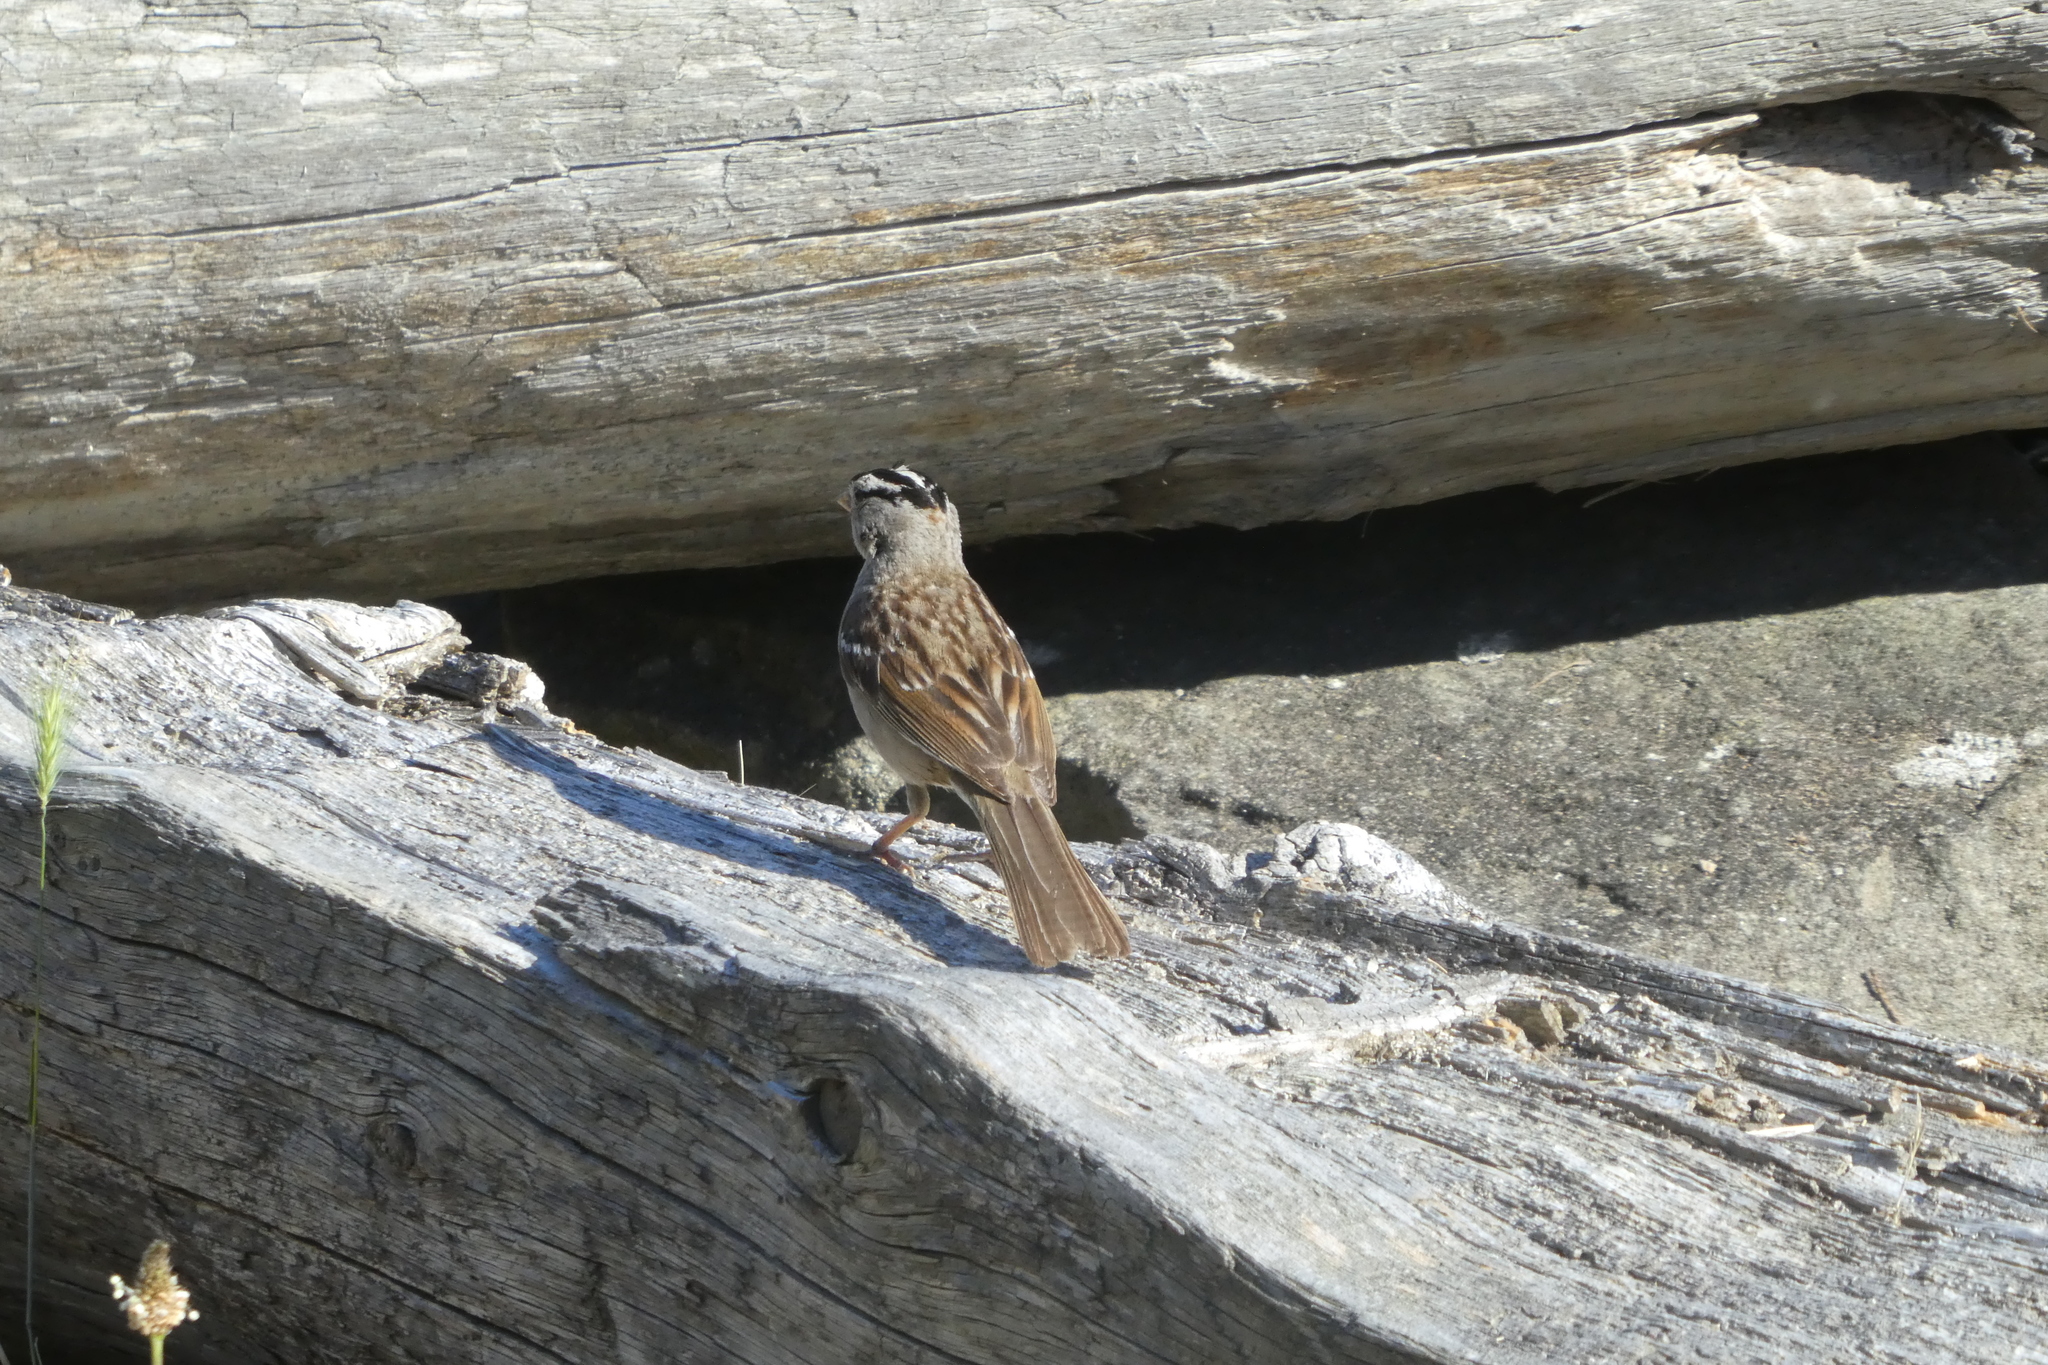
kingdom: Animalia
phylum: Chordata
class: Aves
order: Passeriformes
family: Passerellidae
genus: Zonotrichia
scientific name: Zonotrichia leucophrys
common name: White-crowned sparrow
